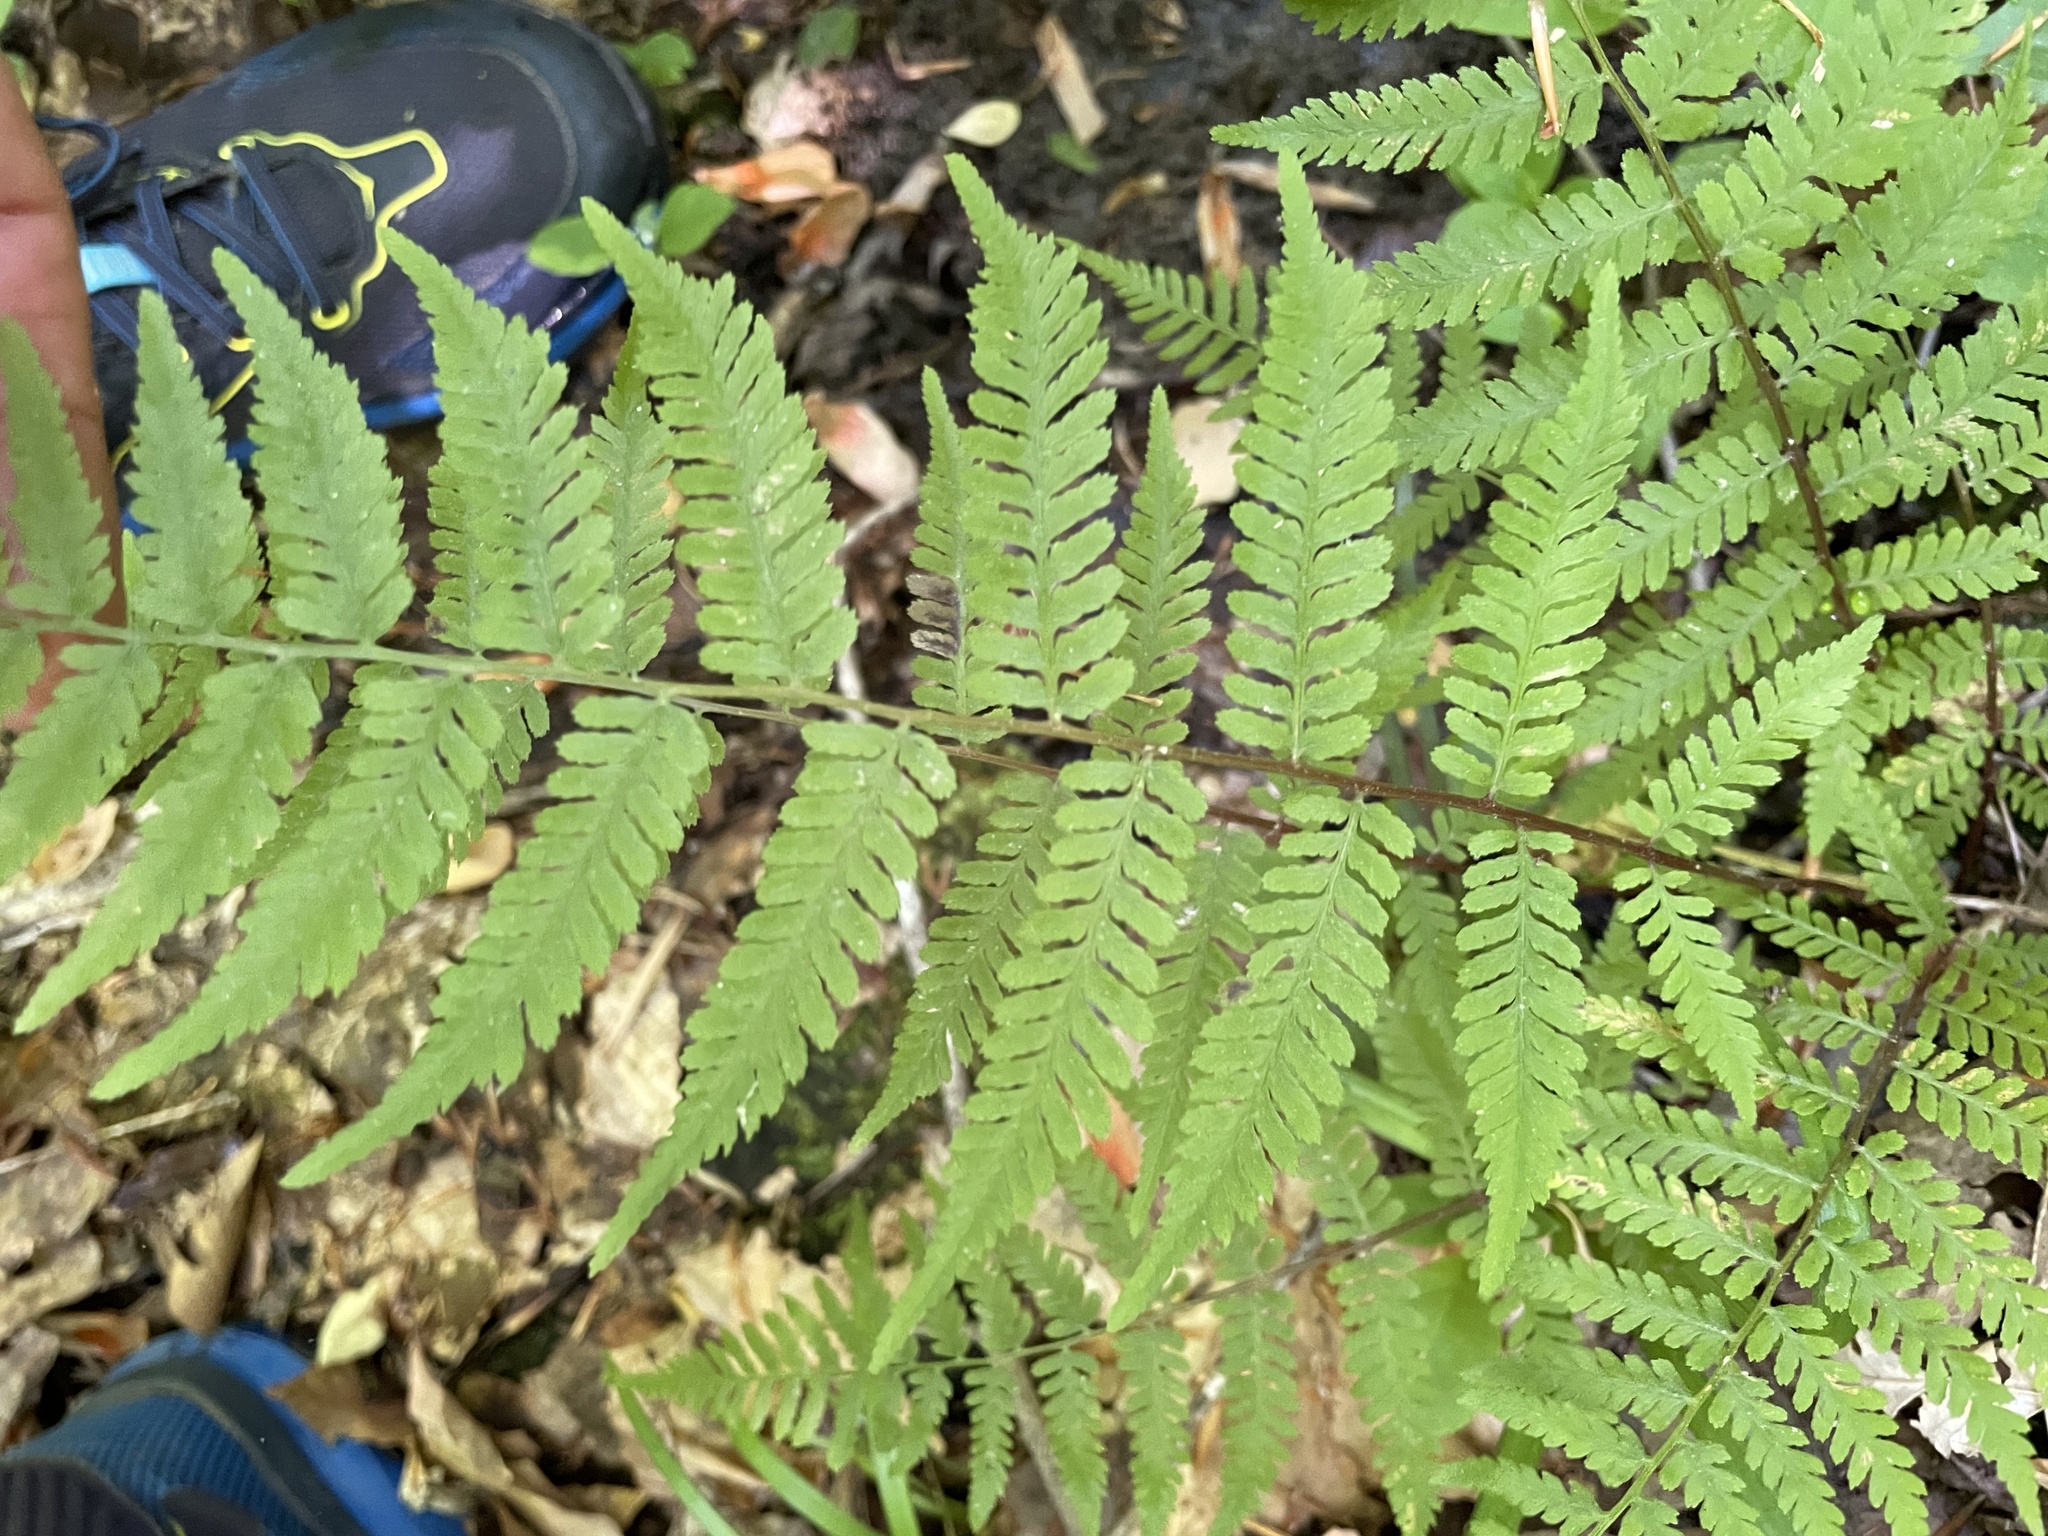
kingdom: Plantae
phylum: Tracheophyta
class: Polypodiopsida
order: Polypodiales
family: Athyriaceae
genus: Athyrium
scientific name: Athyrium asplenioides
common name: Southern lady fern
